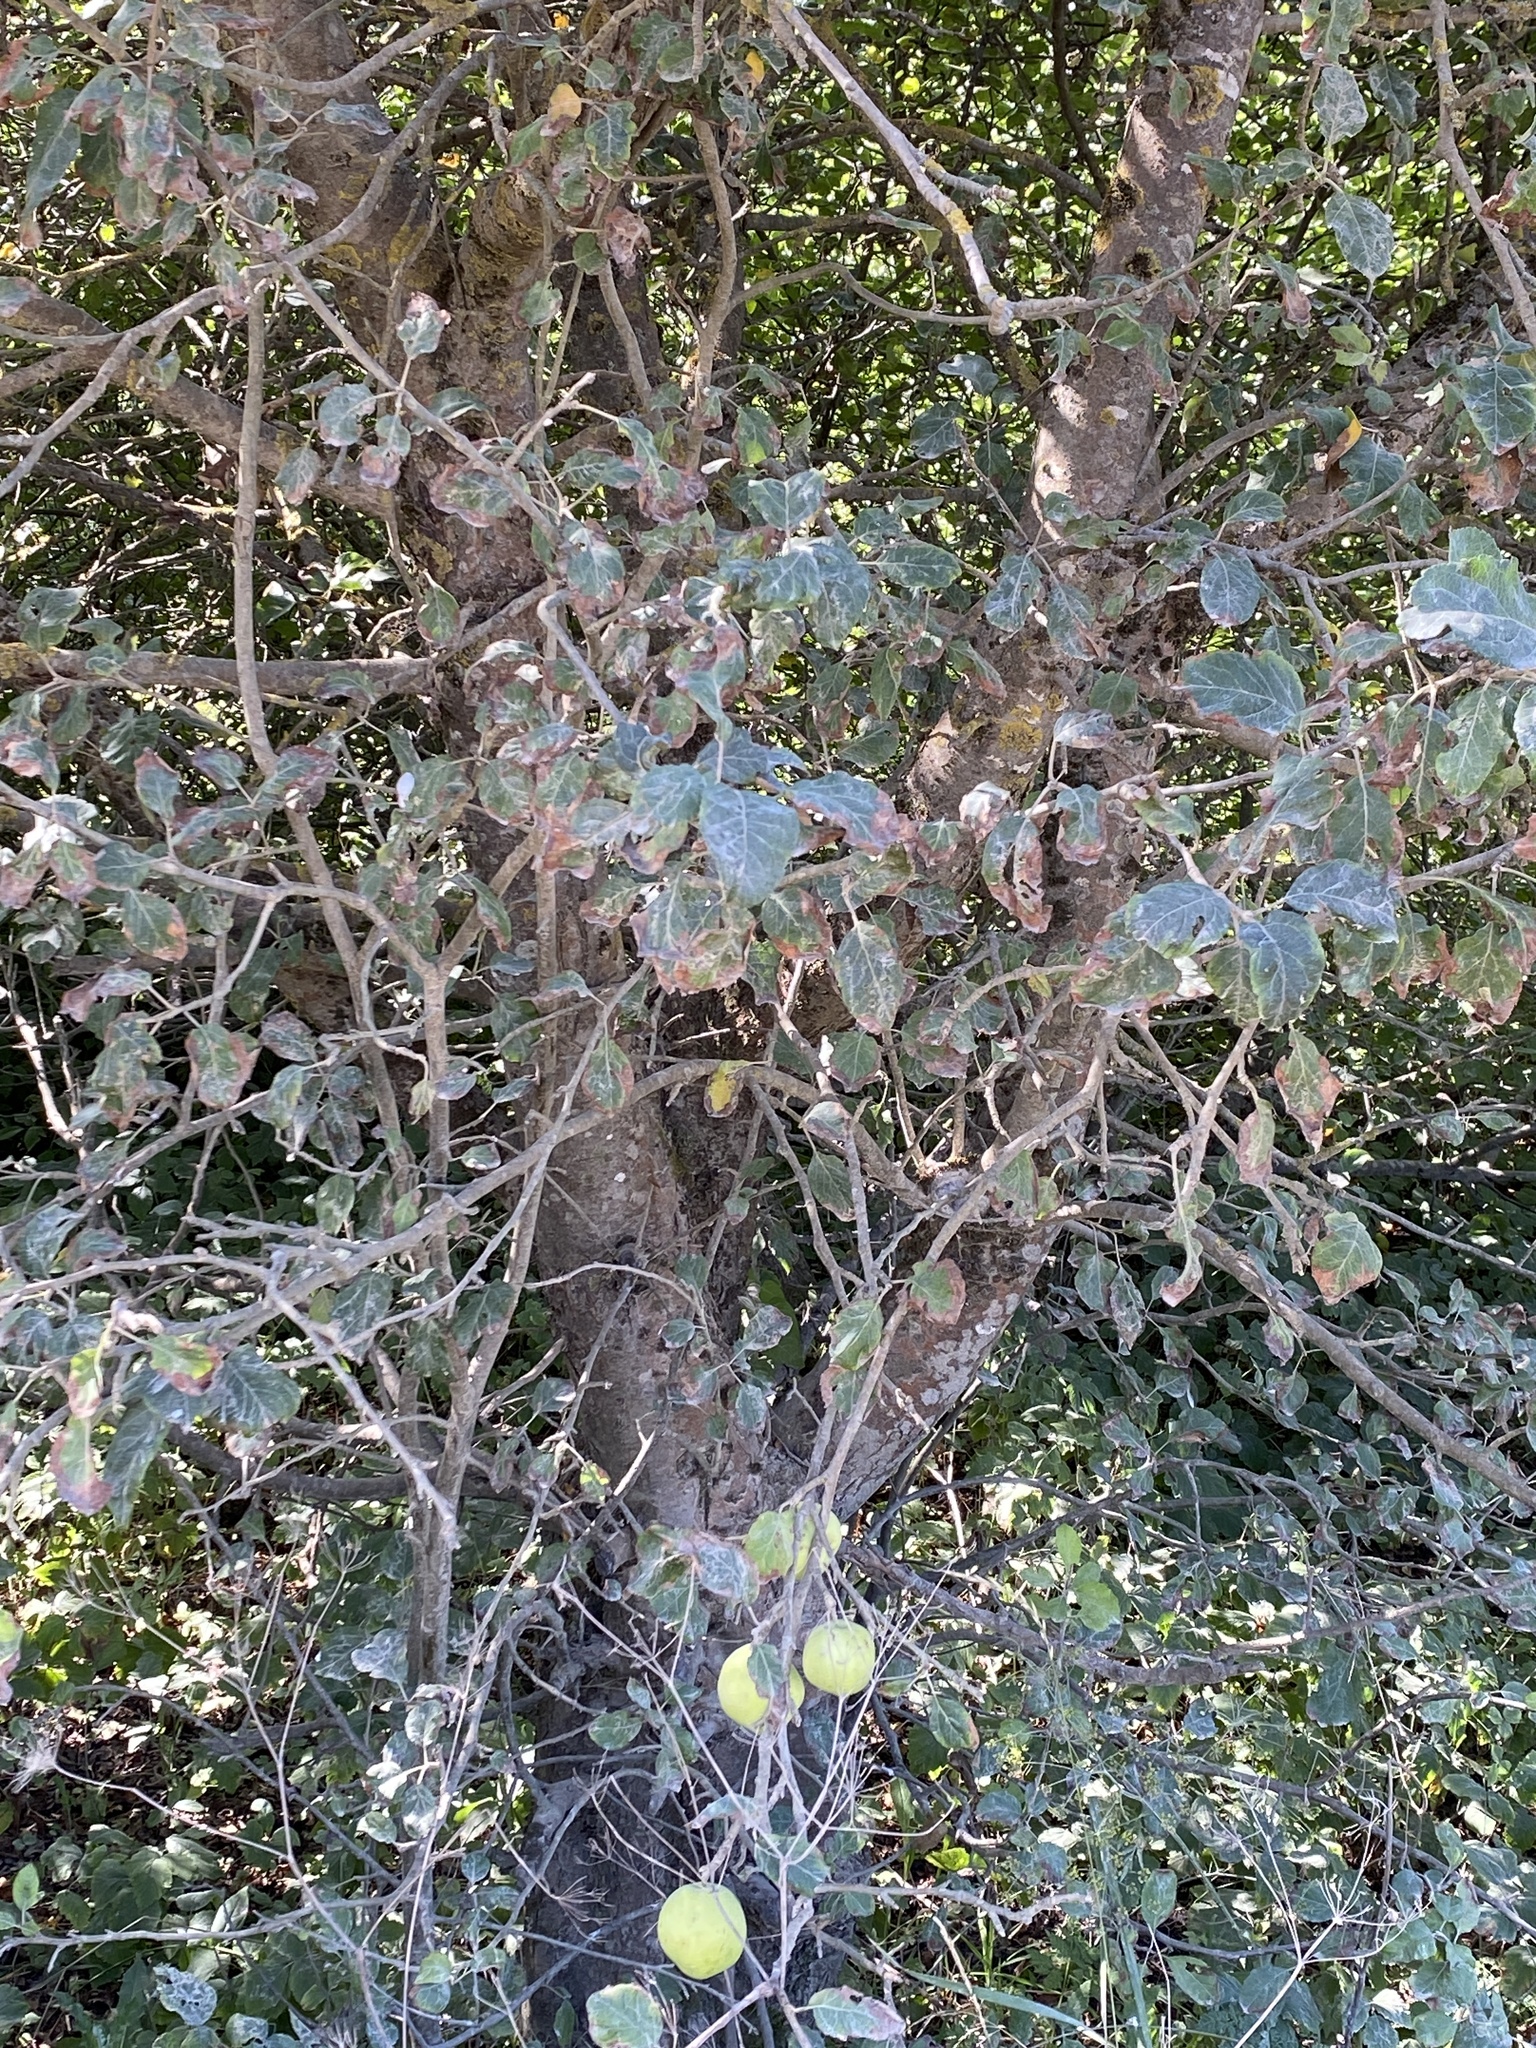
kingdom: Plantae
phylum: Tracheophyta
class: Magnoliopsida
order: Rosales
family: Rosaceae
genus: Malus
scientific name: Malus domestica
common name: Apple
